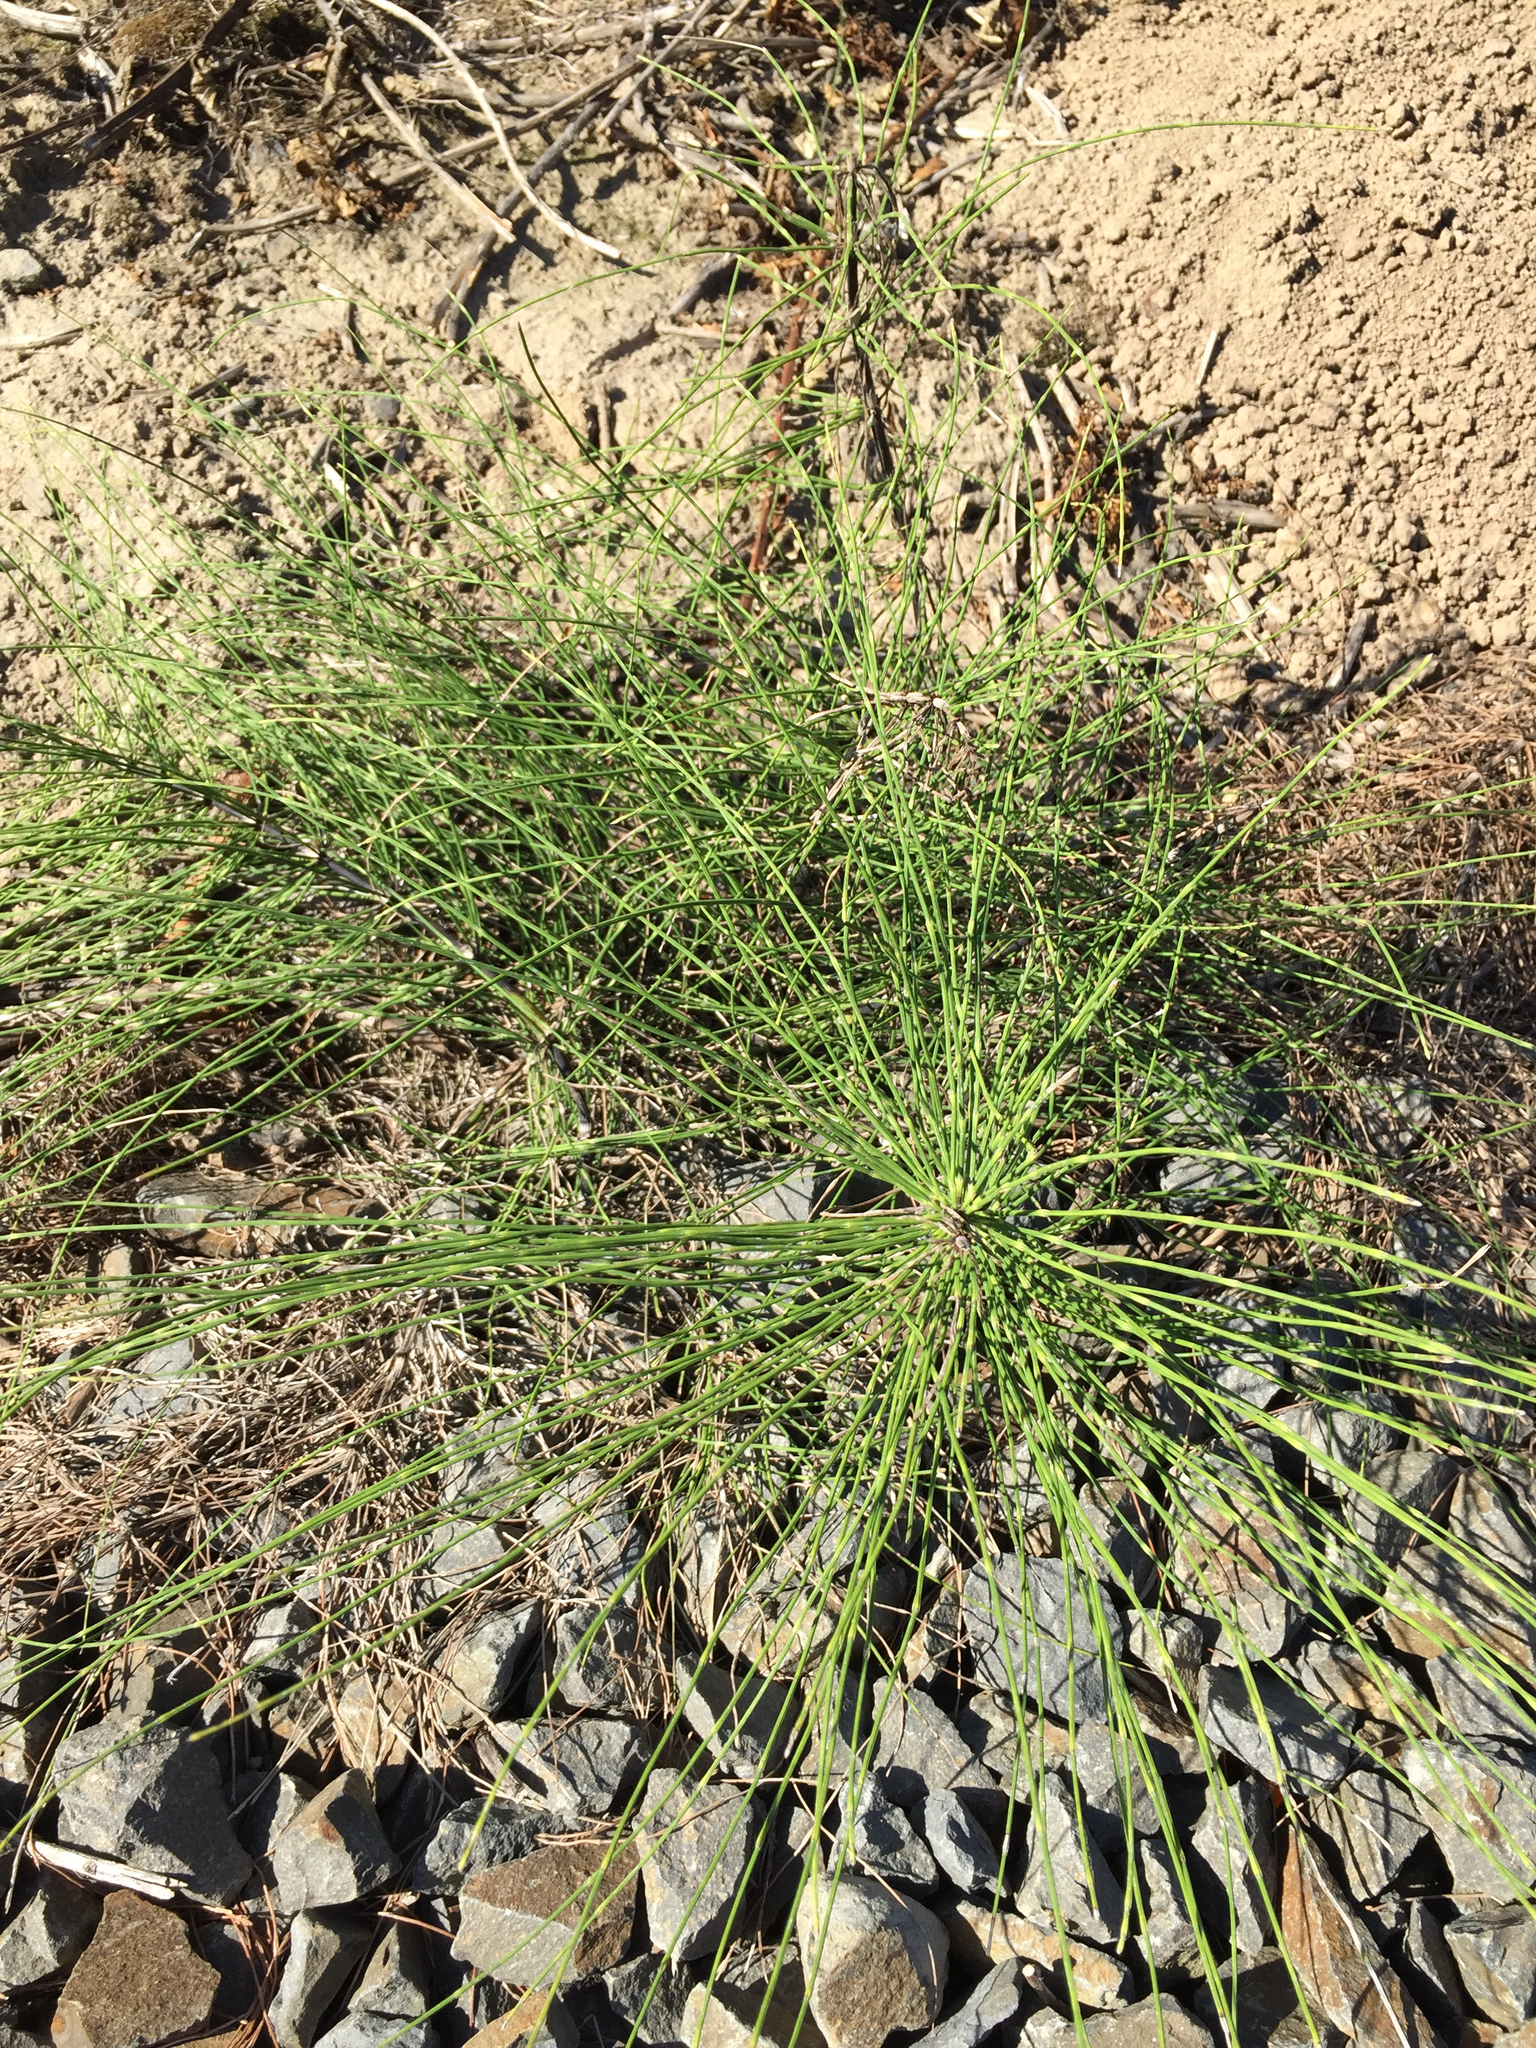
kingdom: Plantae
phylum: Tracheophyta
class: Polypodiopsida
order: Equisetales
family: Equisetaceae
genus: Equisetum
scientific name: Equisetum arvense
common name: Field horsetail
